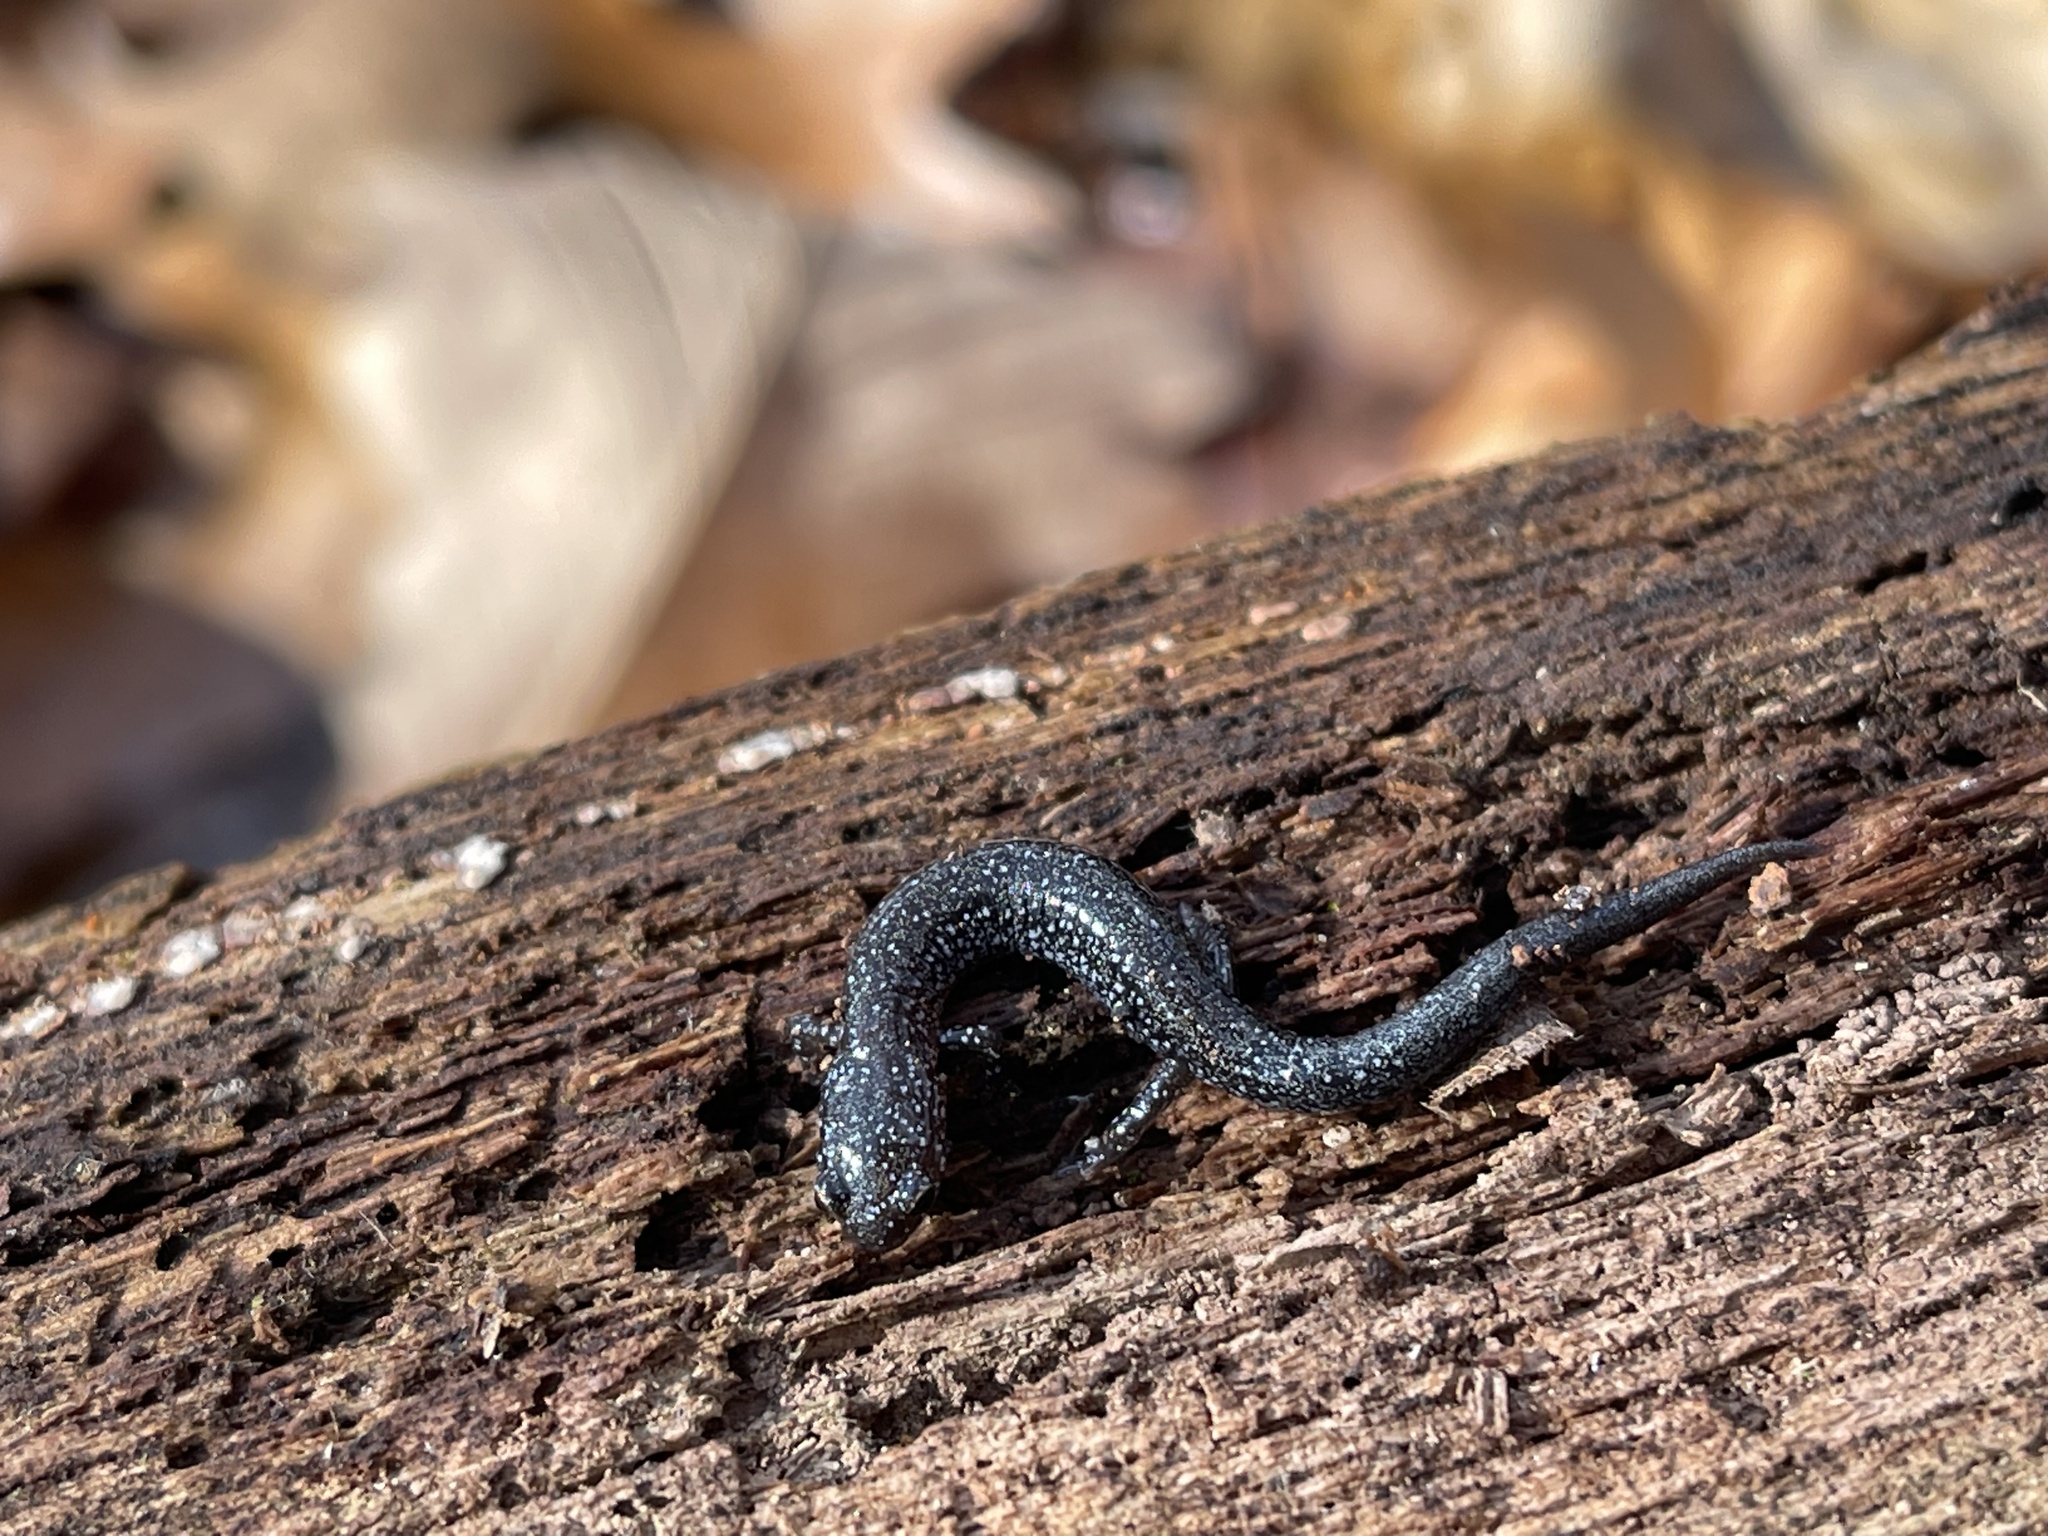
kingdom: Animalia
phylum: Chordata
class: Amphibia
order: Caudata
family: Plethodontidae
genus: Plethodon
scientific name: Plethodon cinereus
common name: Redback salamander
